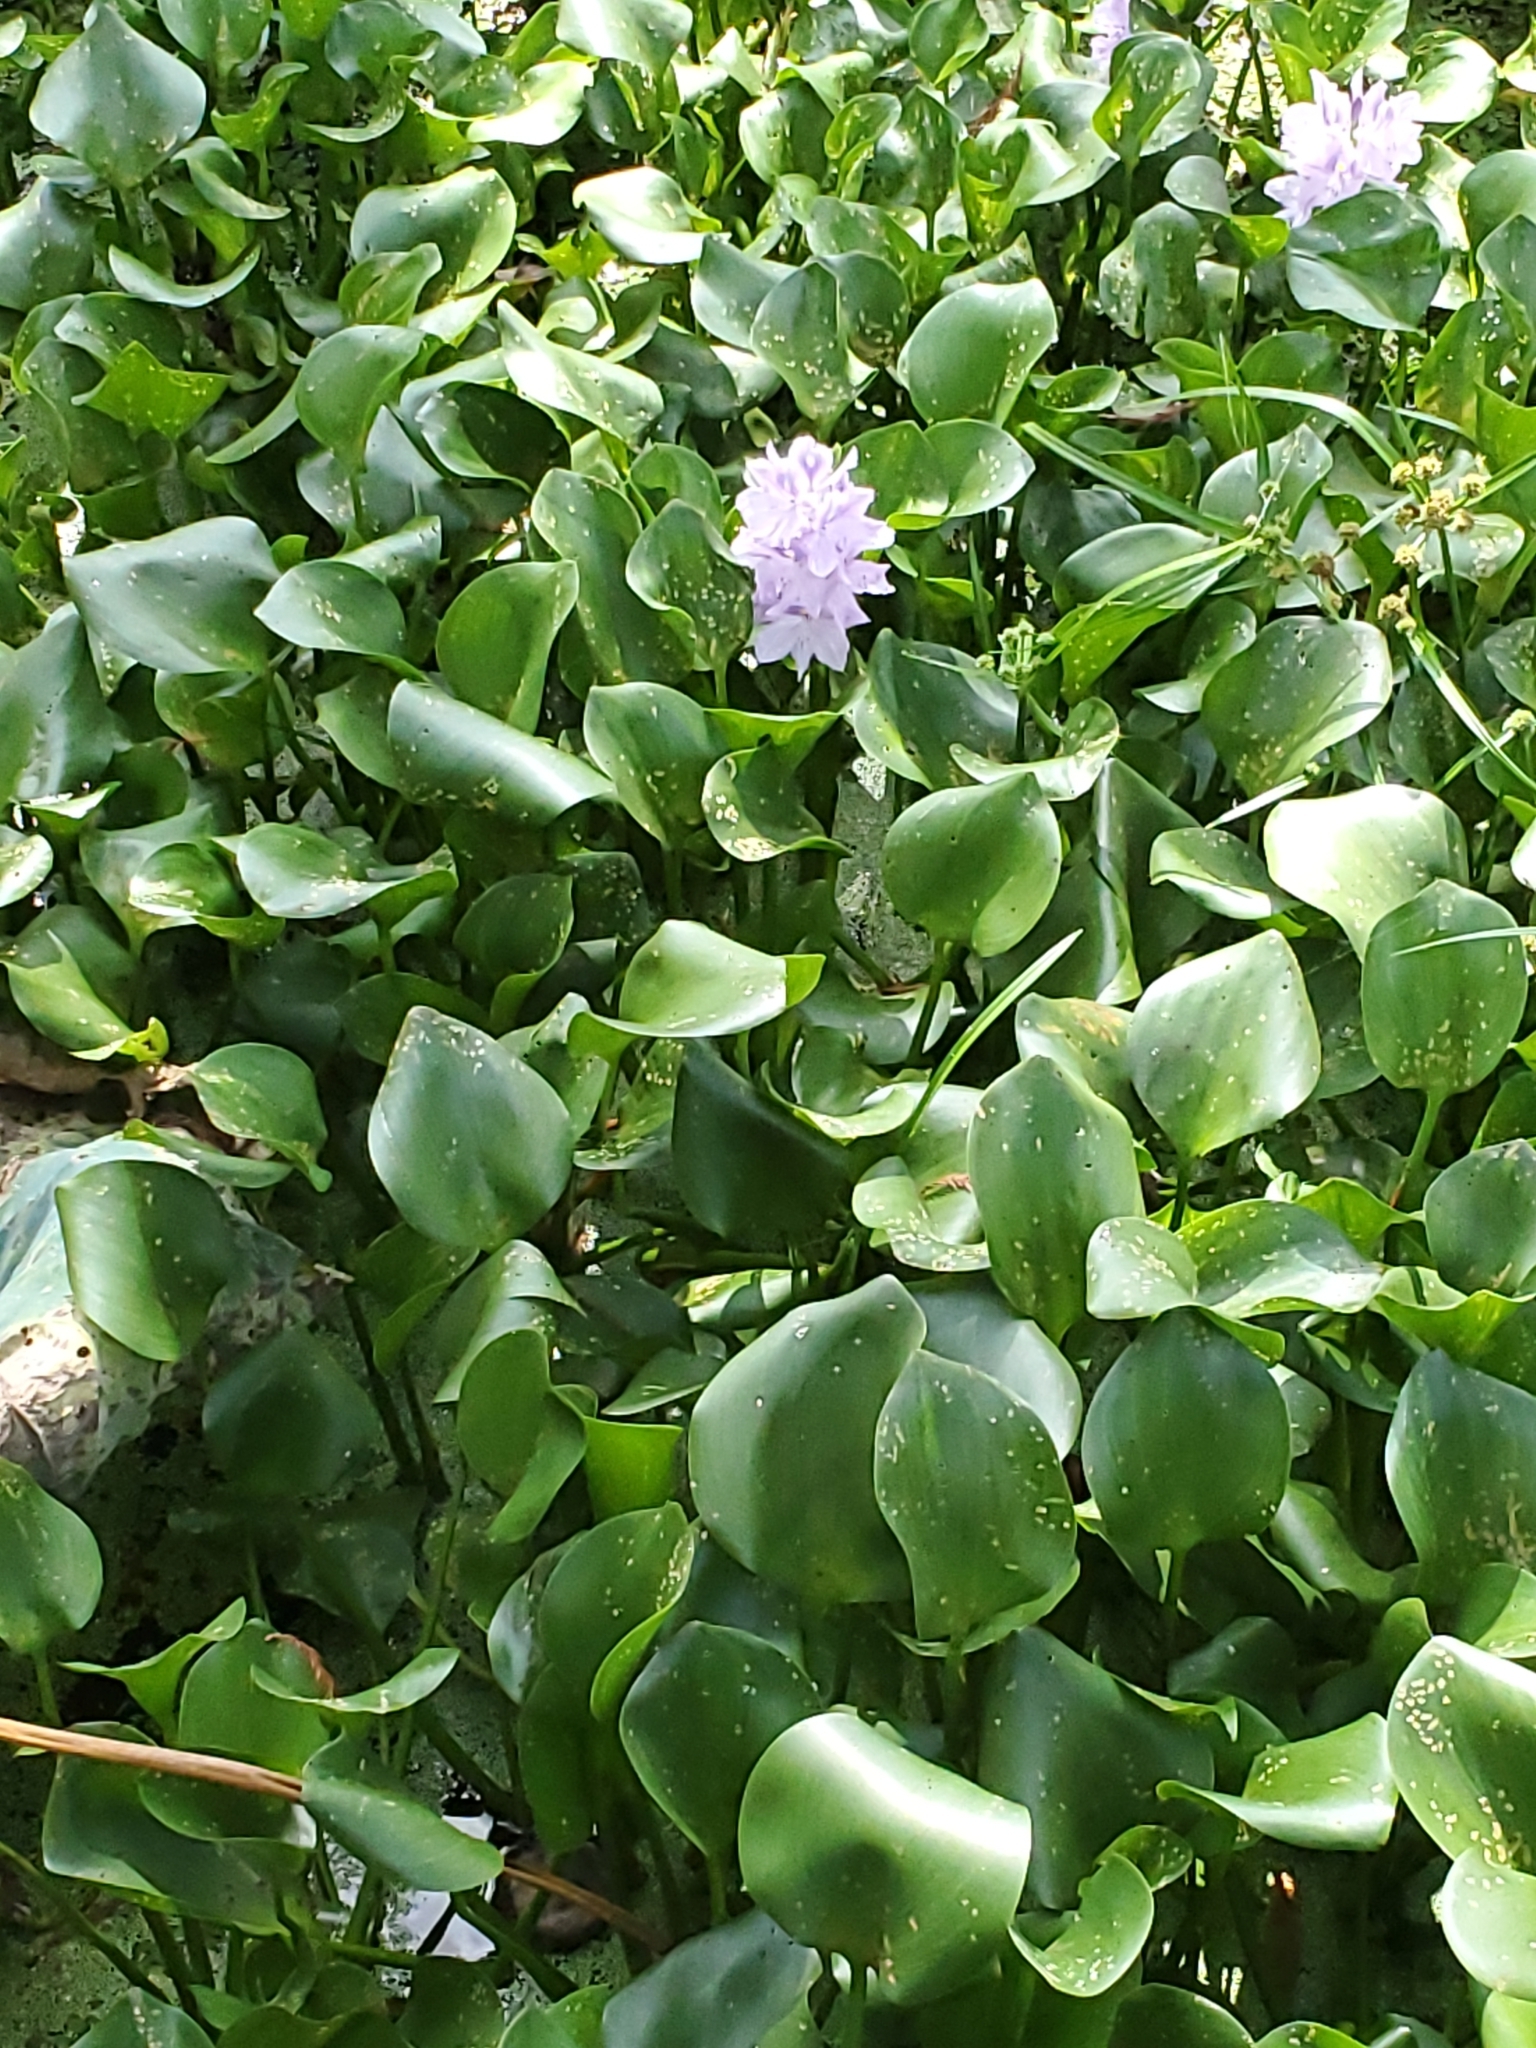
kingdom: Plantae
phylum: Tracheophyta
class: Liliopsida
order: Commelinales
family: Pontederiaceae
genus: Pontederia
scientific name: Pontederia crassipes
